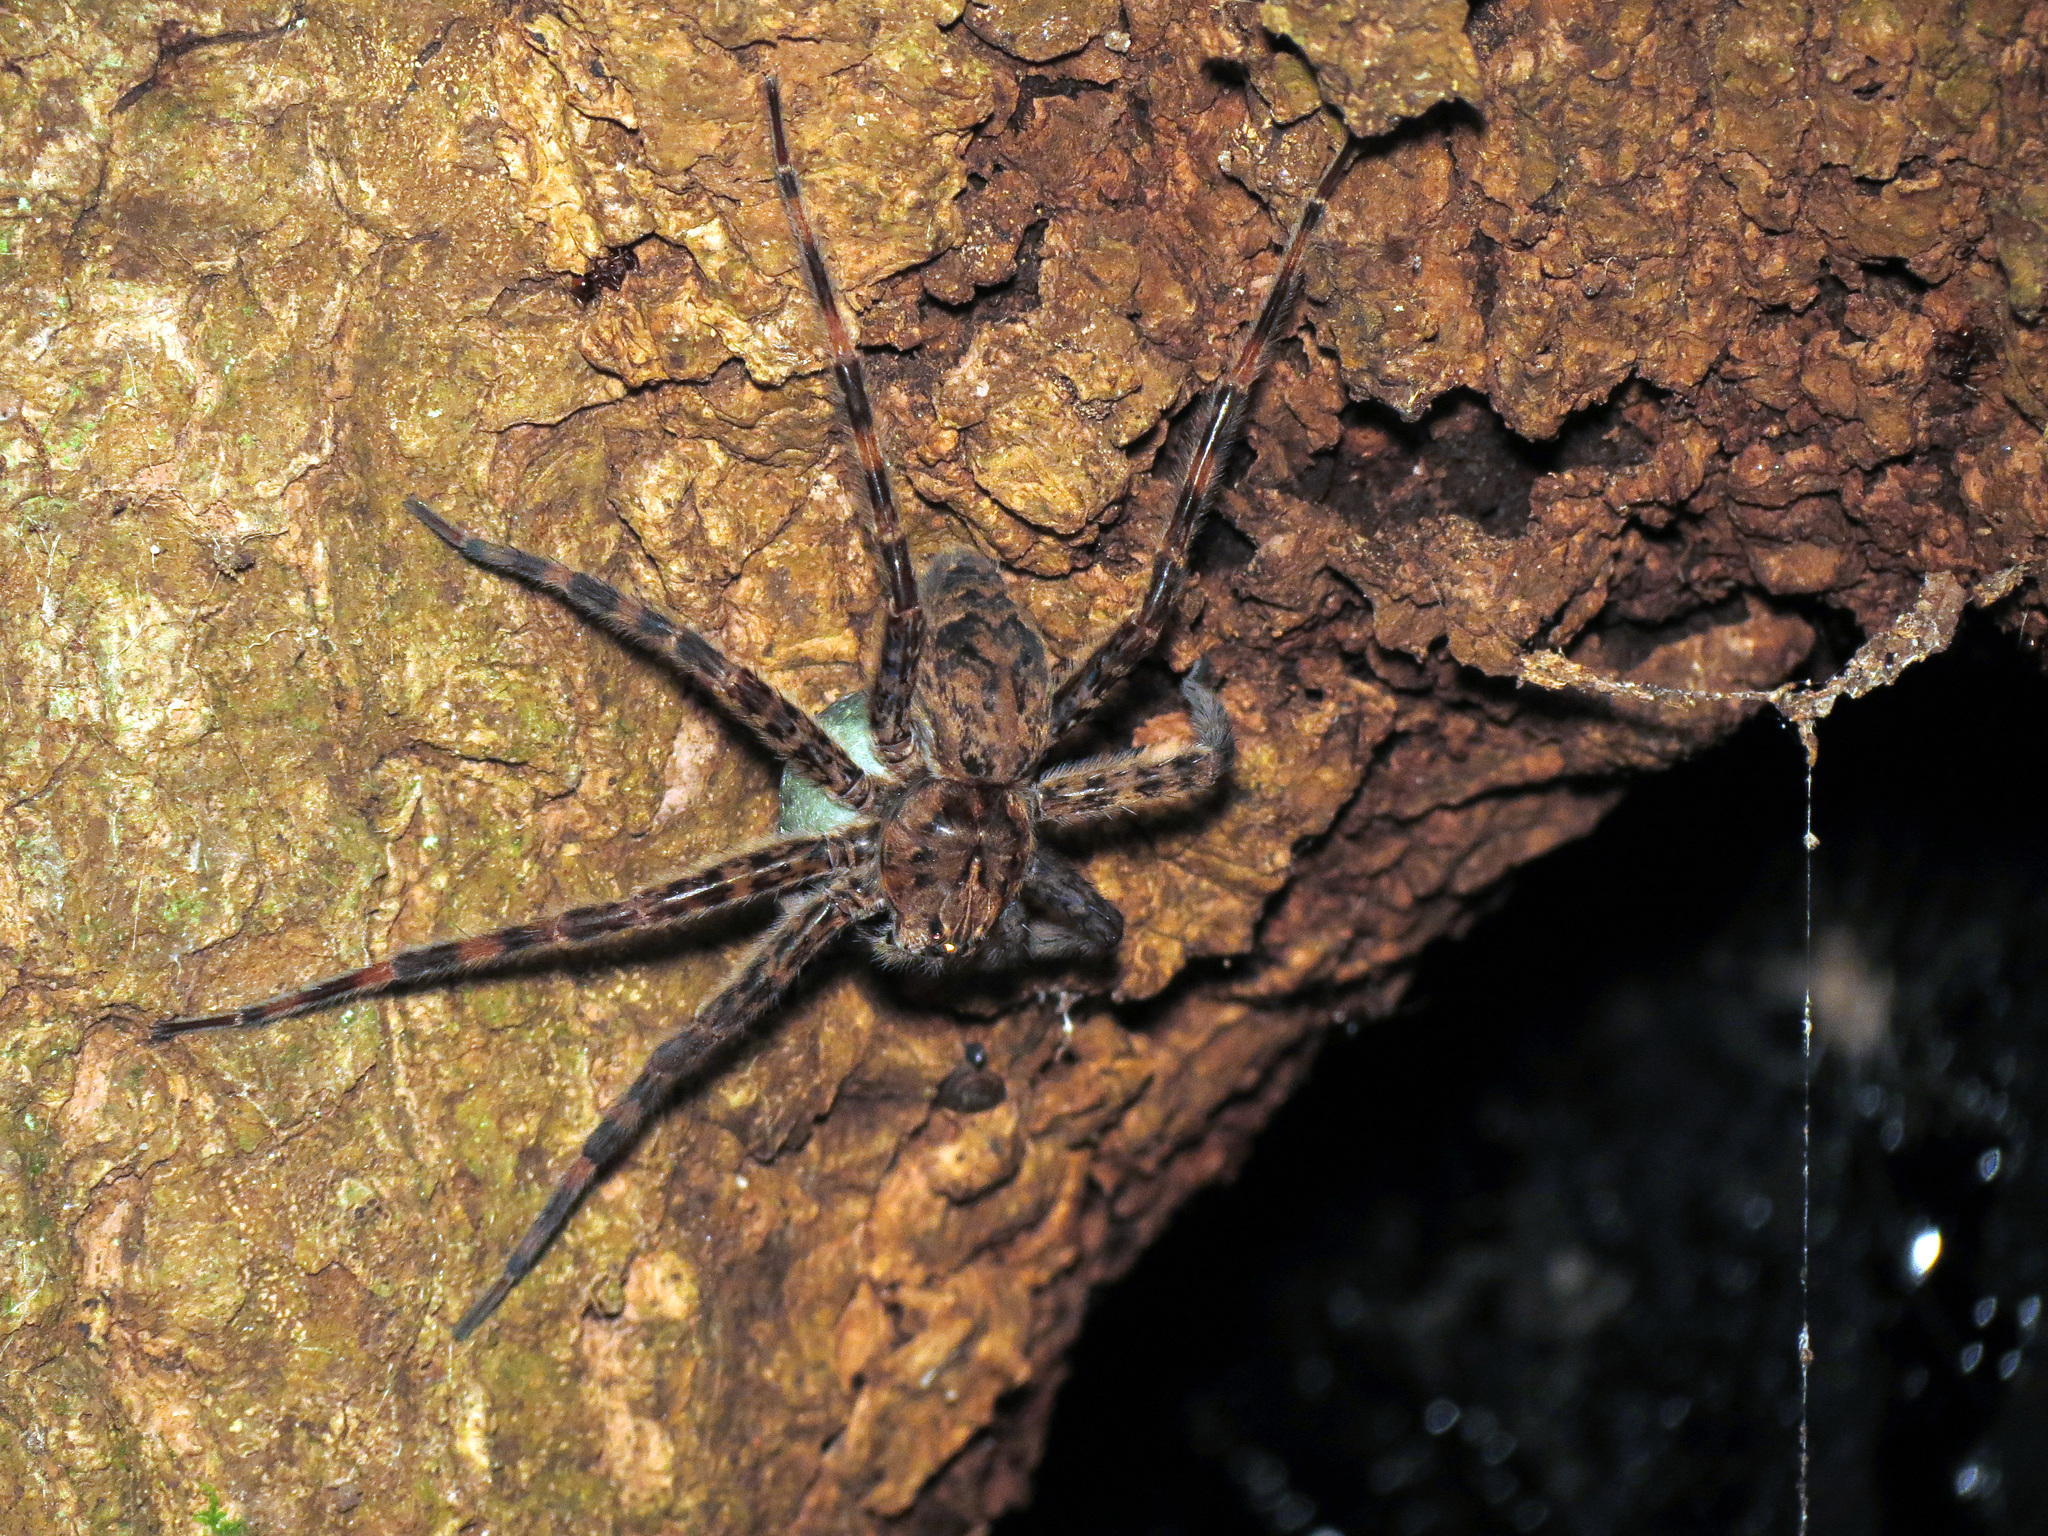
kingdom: Animalia
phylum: Arthropoda
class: Arachnida
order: Araneae
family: Pisauridae
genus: Dolomedes
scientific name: Dolomedes tenebrosus
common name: Dark fishing spider
